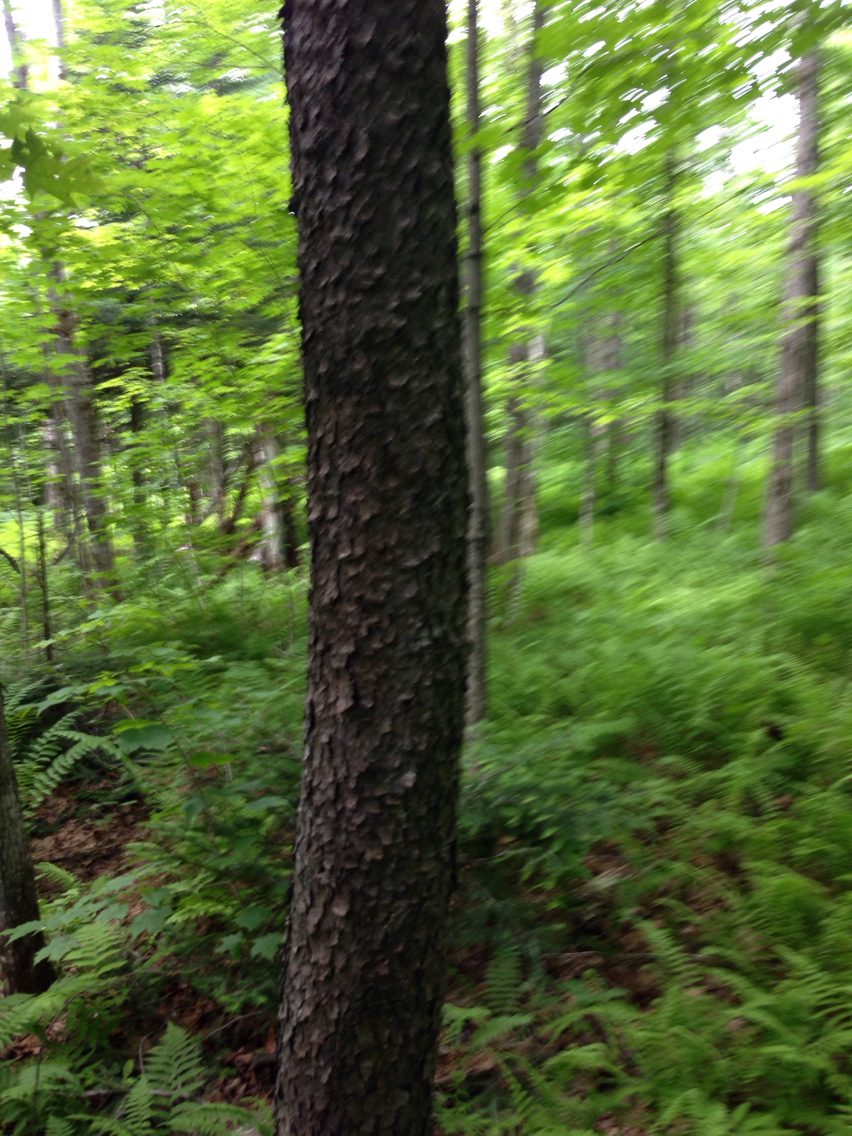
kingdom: Plantae
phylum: Tracheophyta
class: Magnoliopsida
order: Rosales
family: Rosaceae
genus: Prunus
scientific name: Prunus serotina
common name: Black cherry
